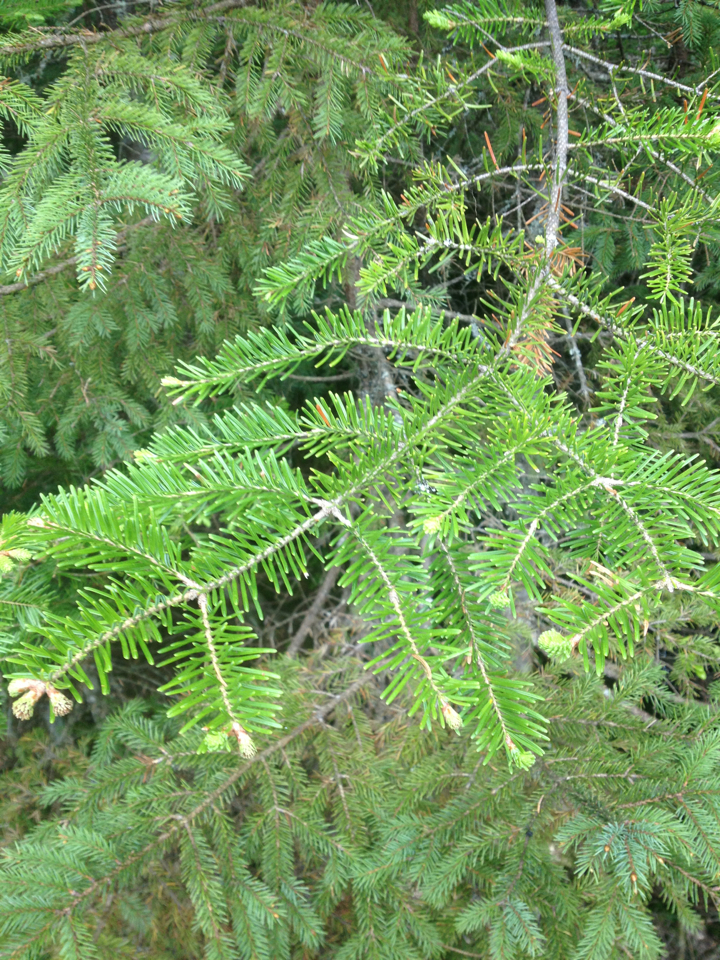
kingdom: Plantae
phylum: Tracheophyta
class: Pinopsida
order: Pinales
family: Pinaceae
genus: Abies
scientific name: Abies balsamea
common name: Balsam fir
